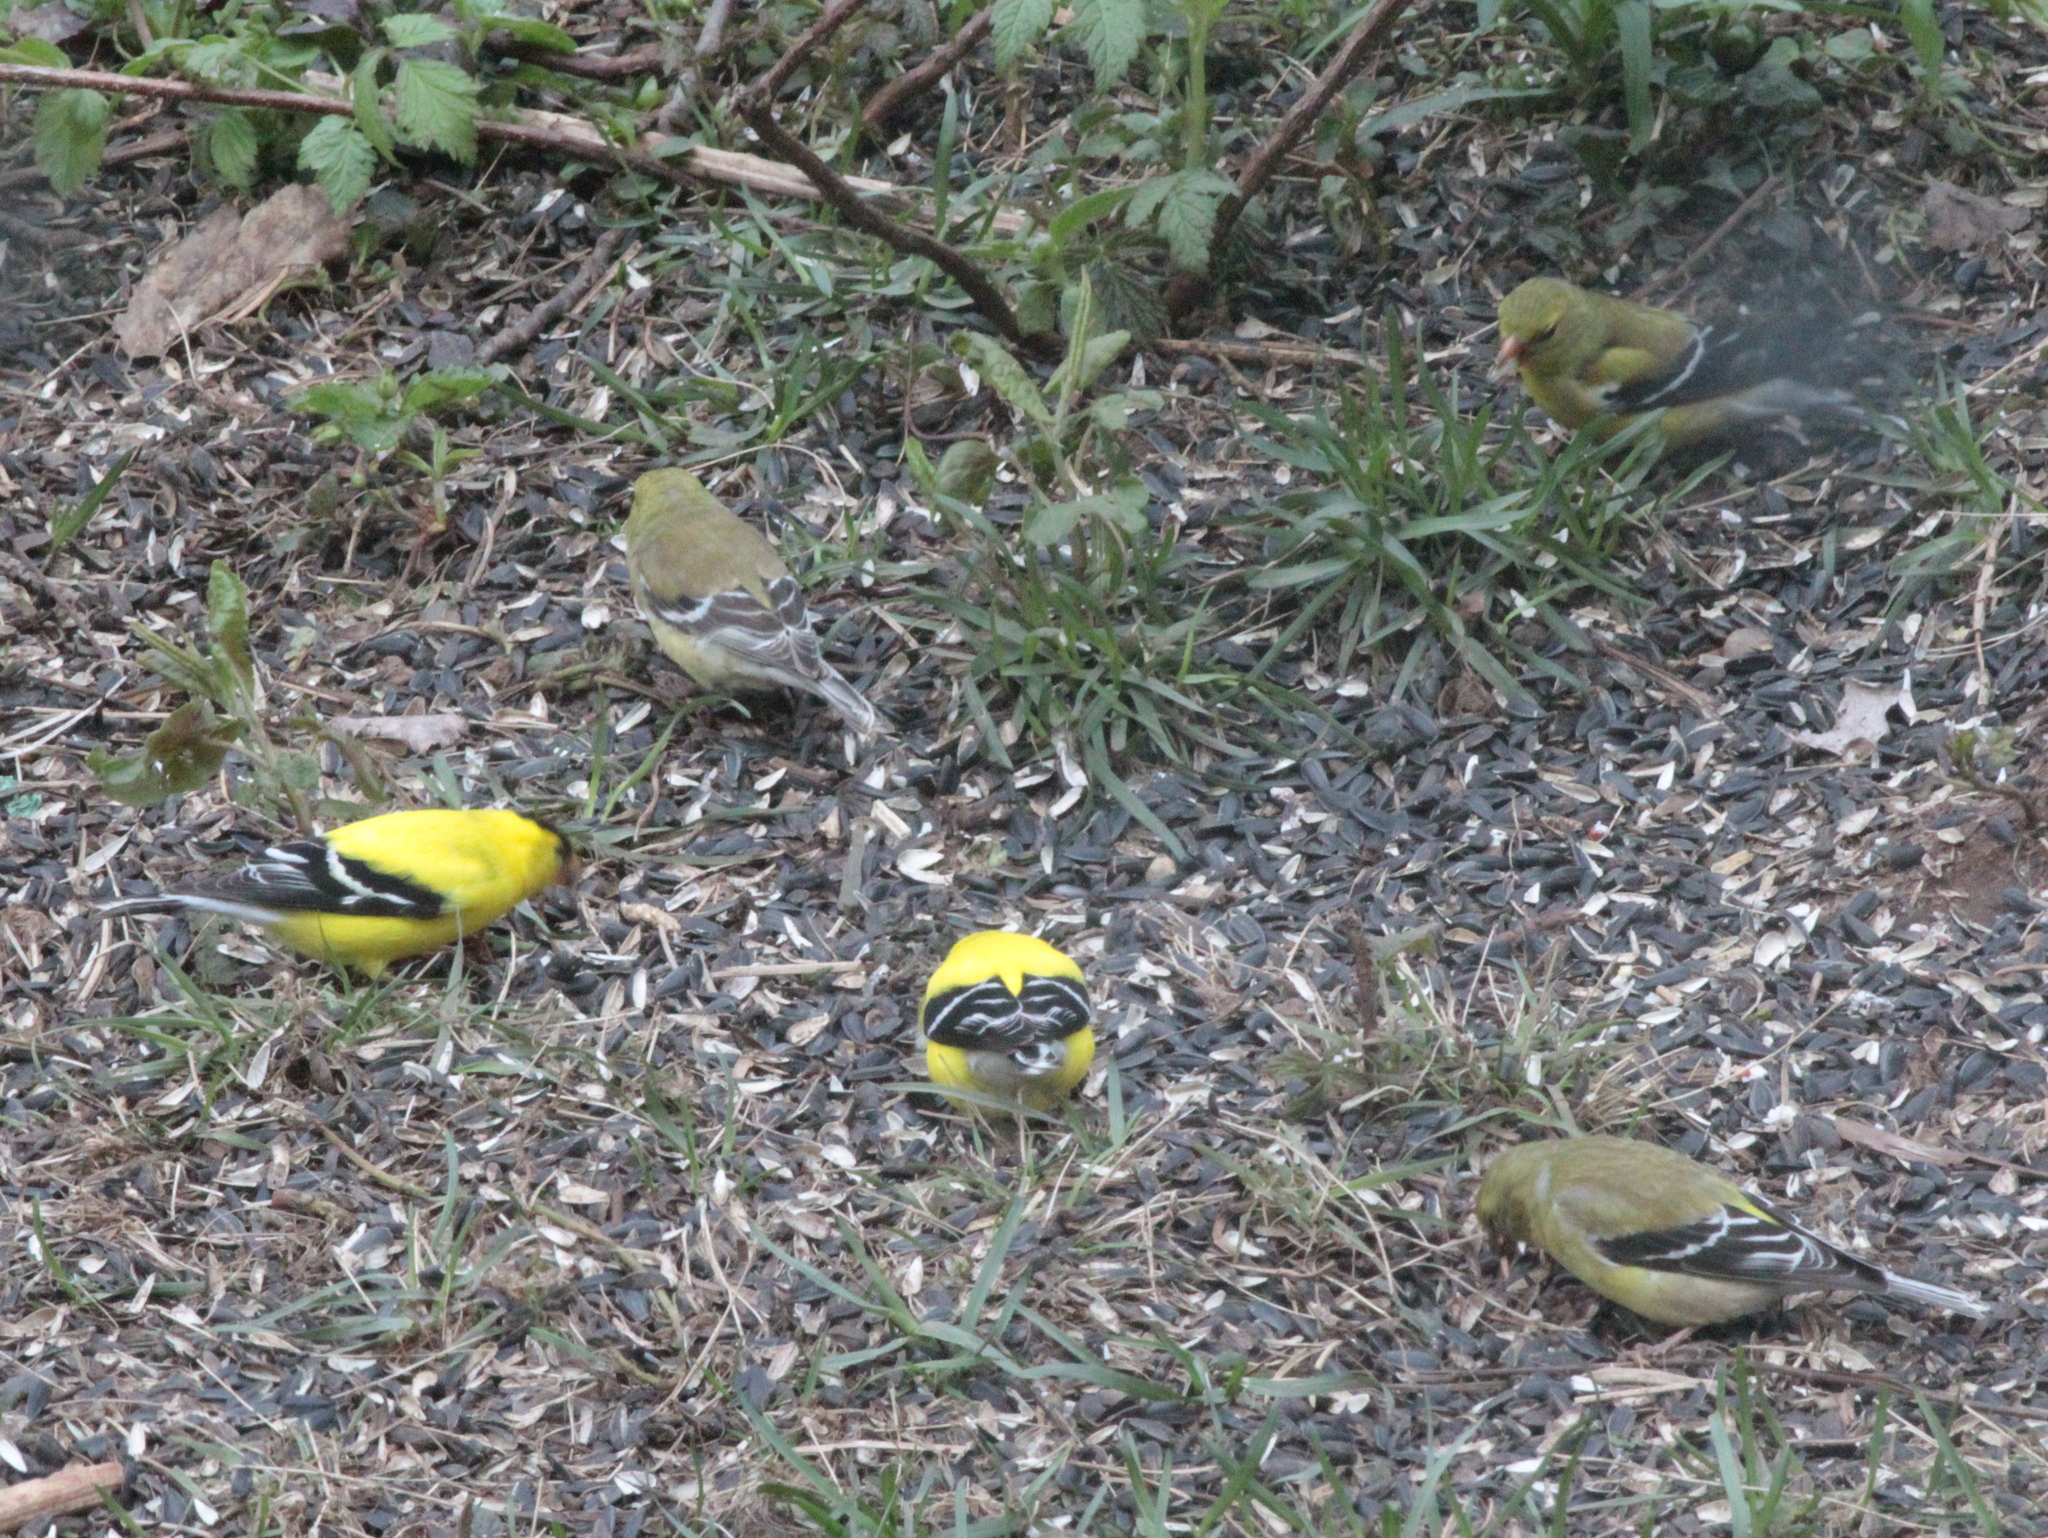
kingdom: Animalia
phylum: Chordata
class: Aves
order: Passeriformes
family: Fringillidae
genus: Spinus
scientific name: Spinus tristis
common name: American goldfinch
